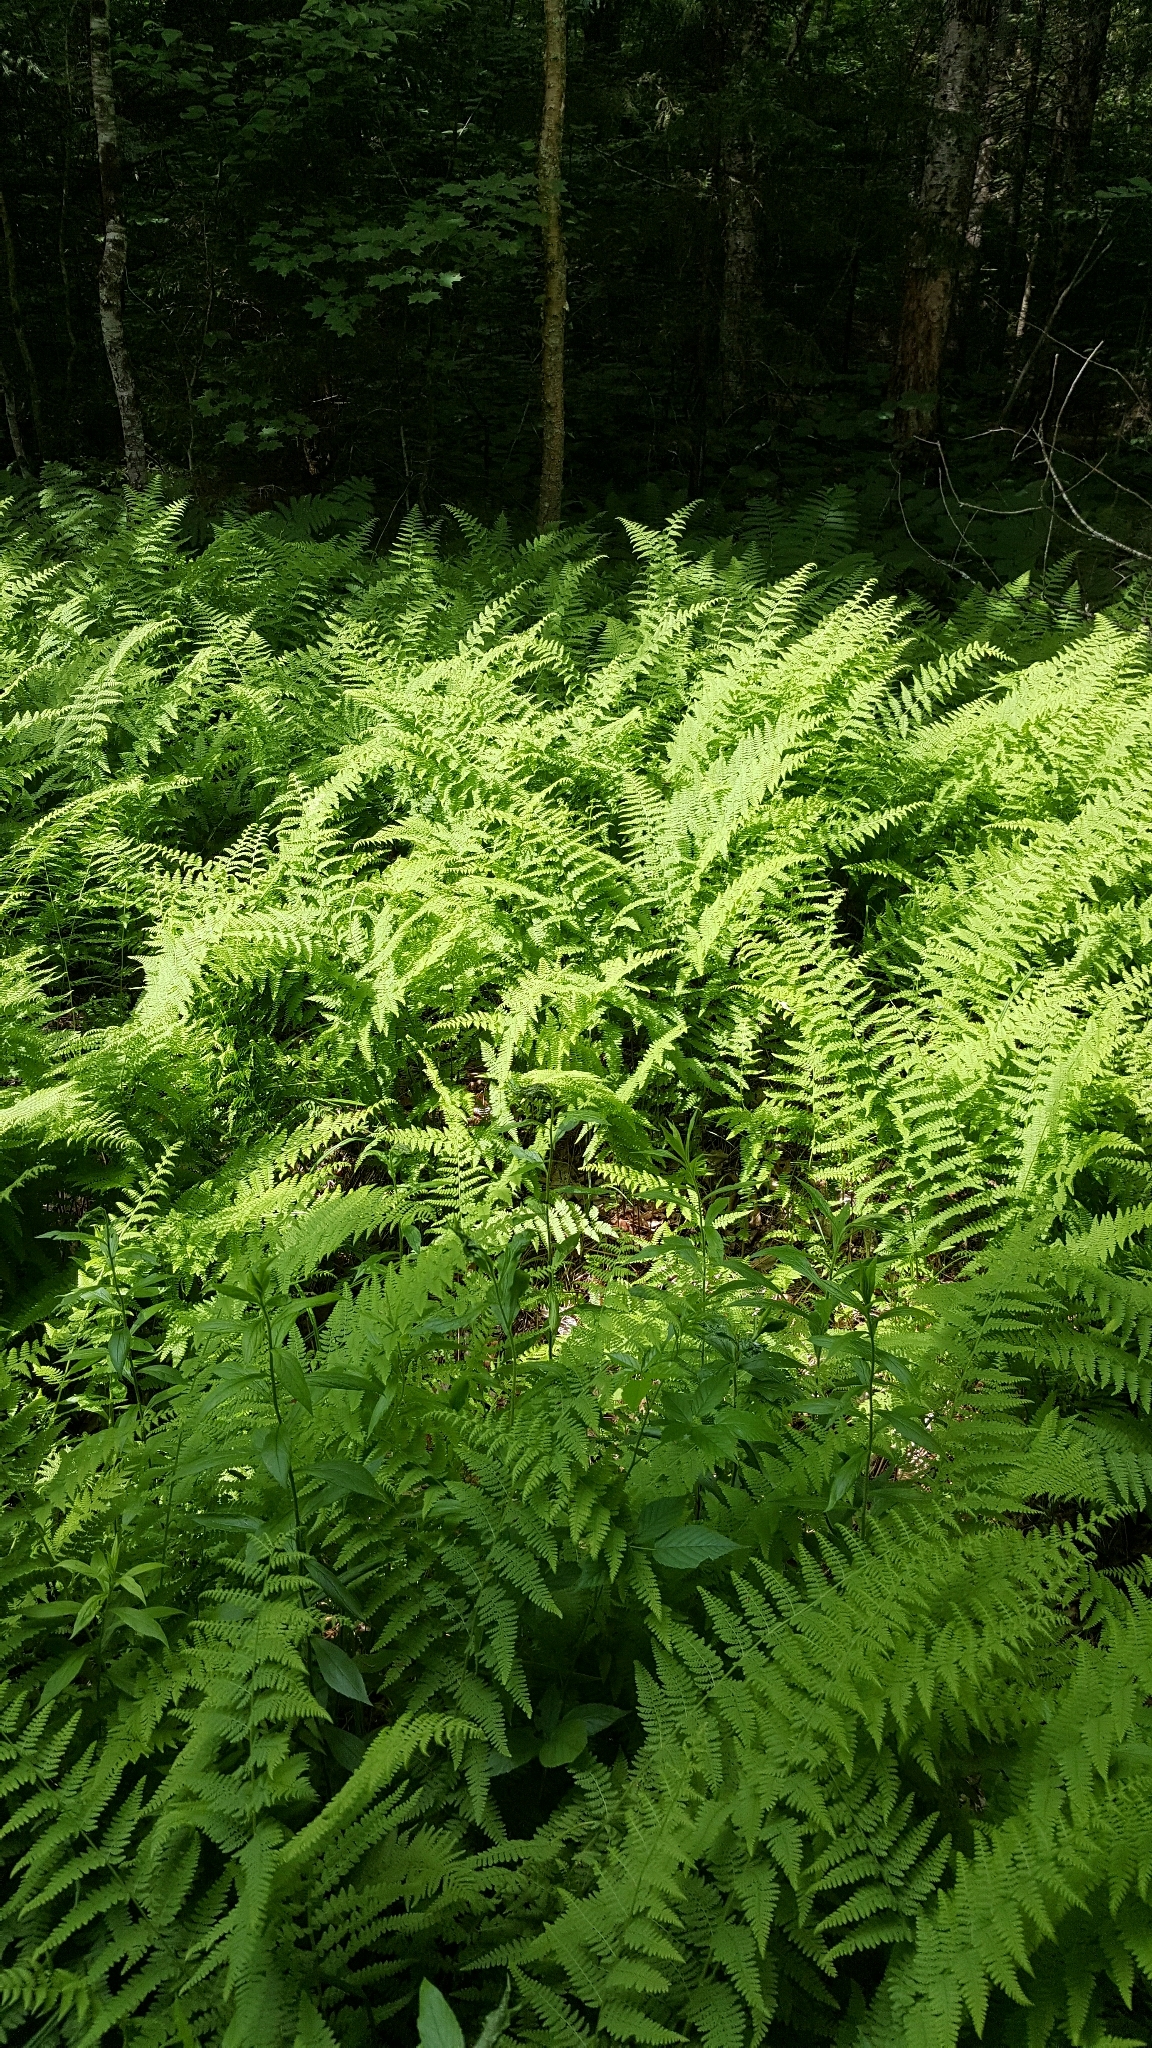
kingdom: Plantae
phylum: Tracheophyta
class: Polypodiopsida
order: Polypodiales
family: Dennstaedtiaceae
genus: Sitobolium
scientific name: Sitobolium punctilobum
